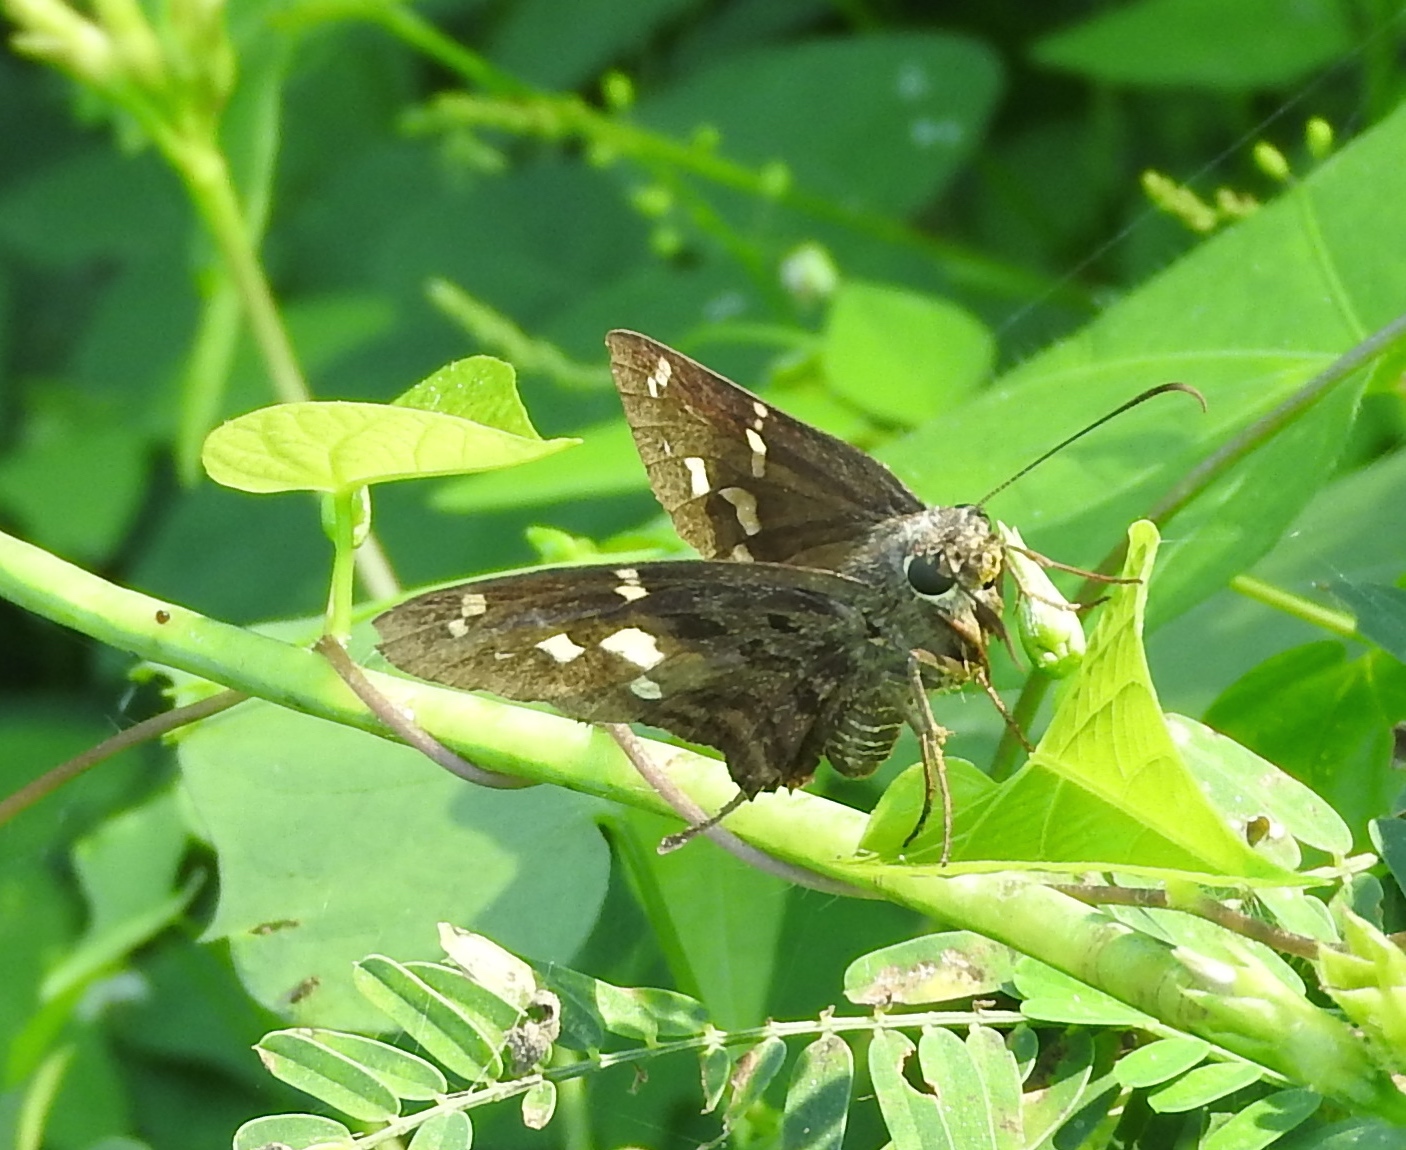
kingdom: Animalia
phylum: Arthropoda
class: Insecta
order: Lepidoptera
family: Hesperiidae
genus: Thorybes
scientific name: Thorybes
